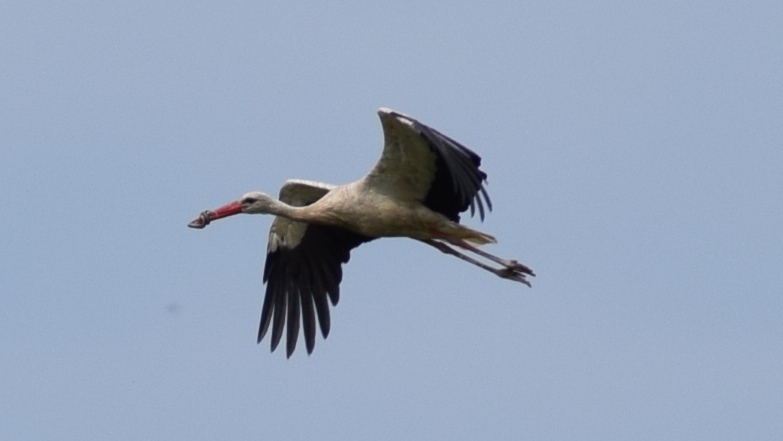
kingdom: Animalia
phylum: Chordata
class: Aves
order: Ciconiiformes
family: Ciconiidae
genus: Ciconia
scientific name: Ciconia ciconia
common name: White stork
